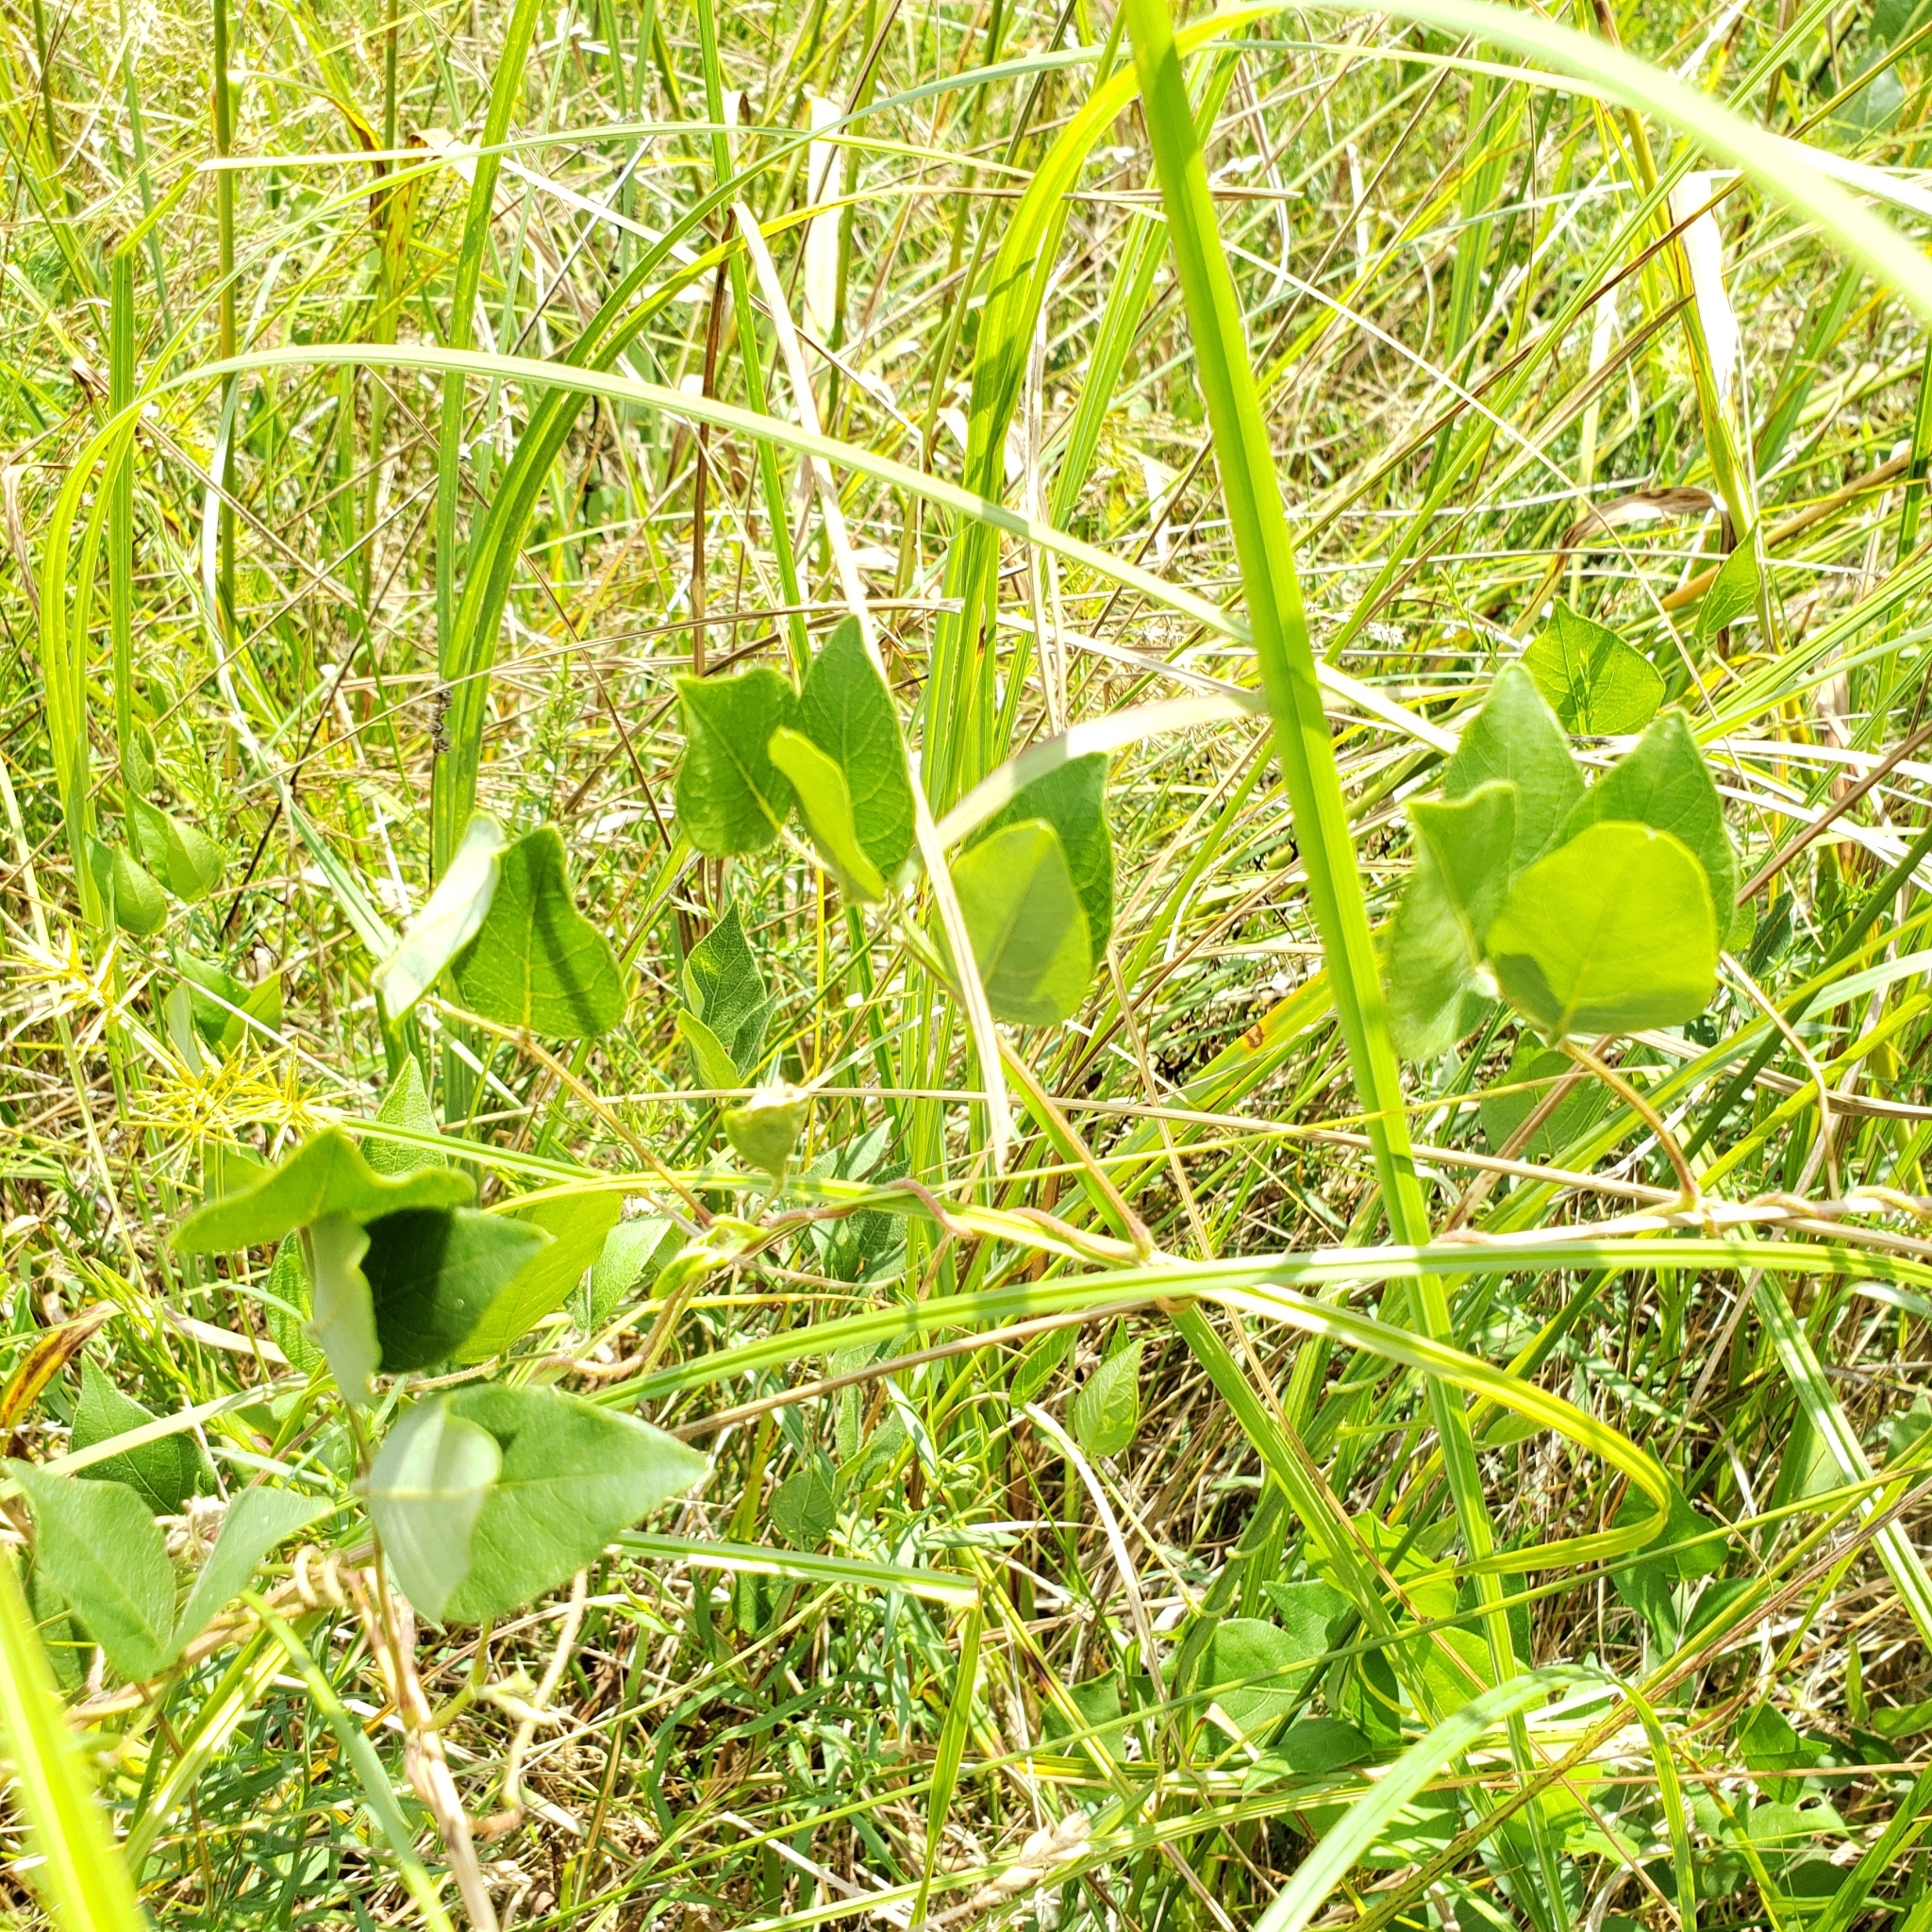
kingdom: Plantae
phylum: Tracheophyta
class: Magnoliopsida
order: Fabales
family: Fabaceae
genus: Apios
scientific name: Apios americana
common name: American potato-bean
